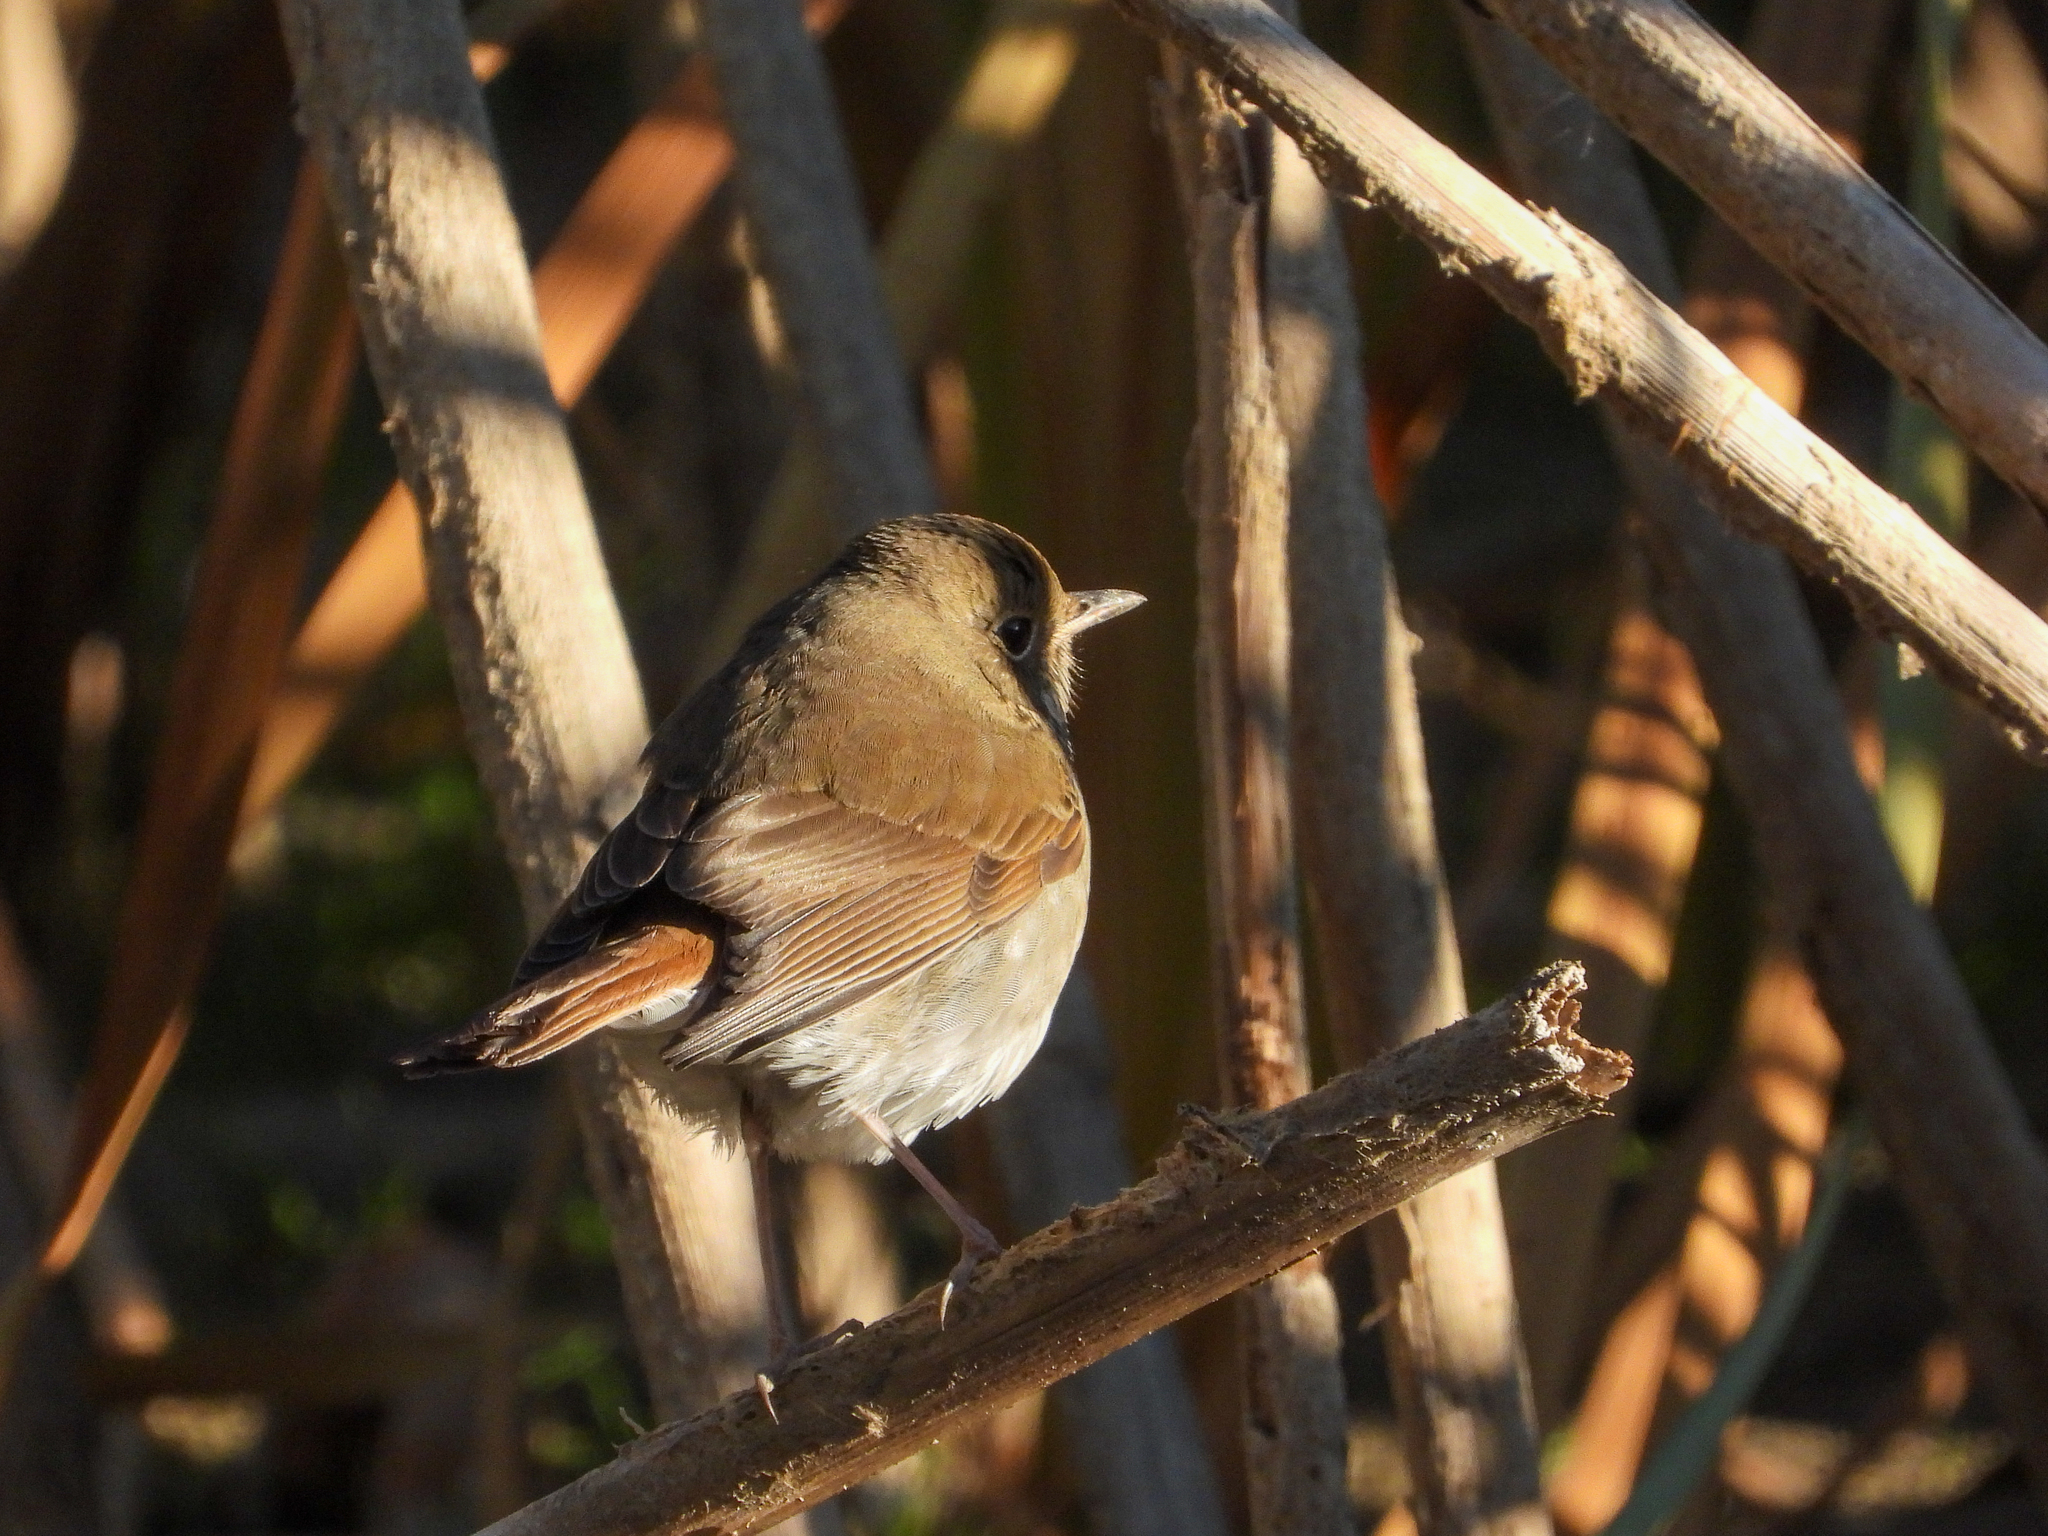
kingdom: Animalia
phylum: Chordata
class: Aves
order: Passeriformes
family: Turdidae
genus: Catharus
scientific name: Catharus guttatus
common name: Hermit thrush
